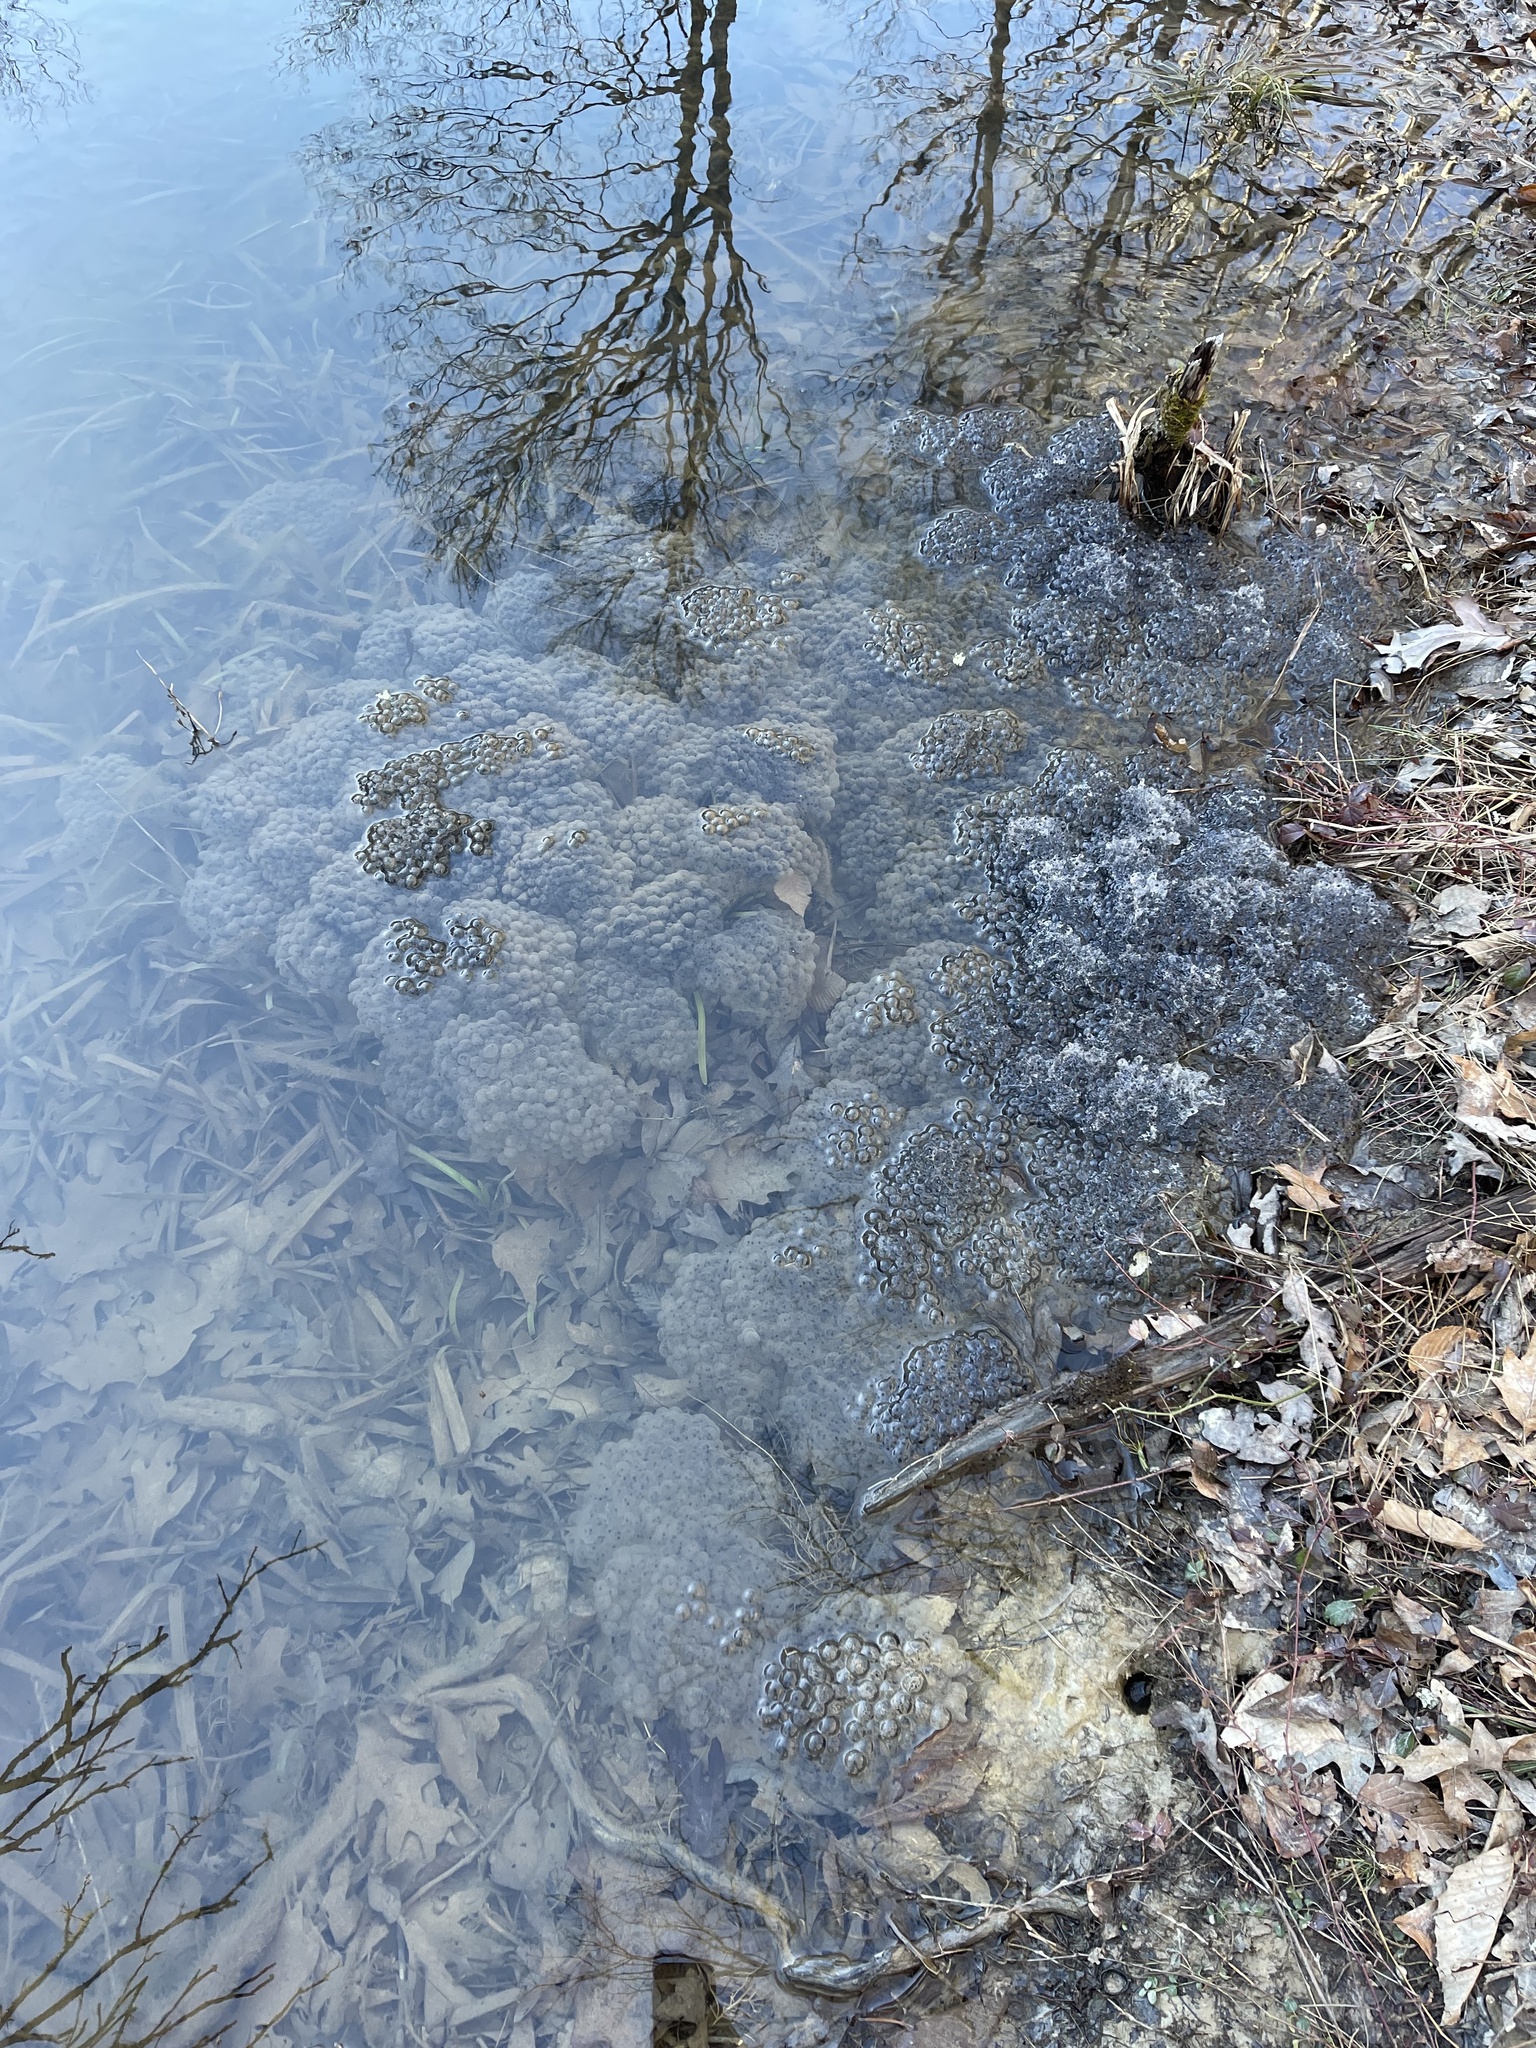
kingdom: Animalia
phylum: Chordata
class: Amphibia
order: Anura
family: Ranidae
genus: Lithobates
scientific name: Lithobates sylvaticus
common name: Wood frog
